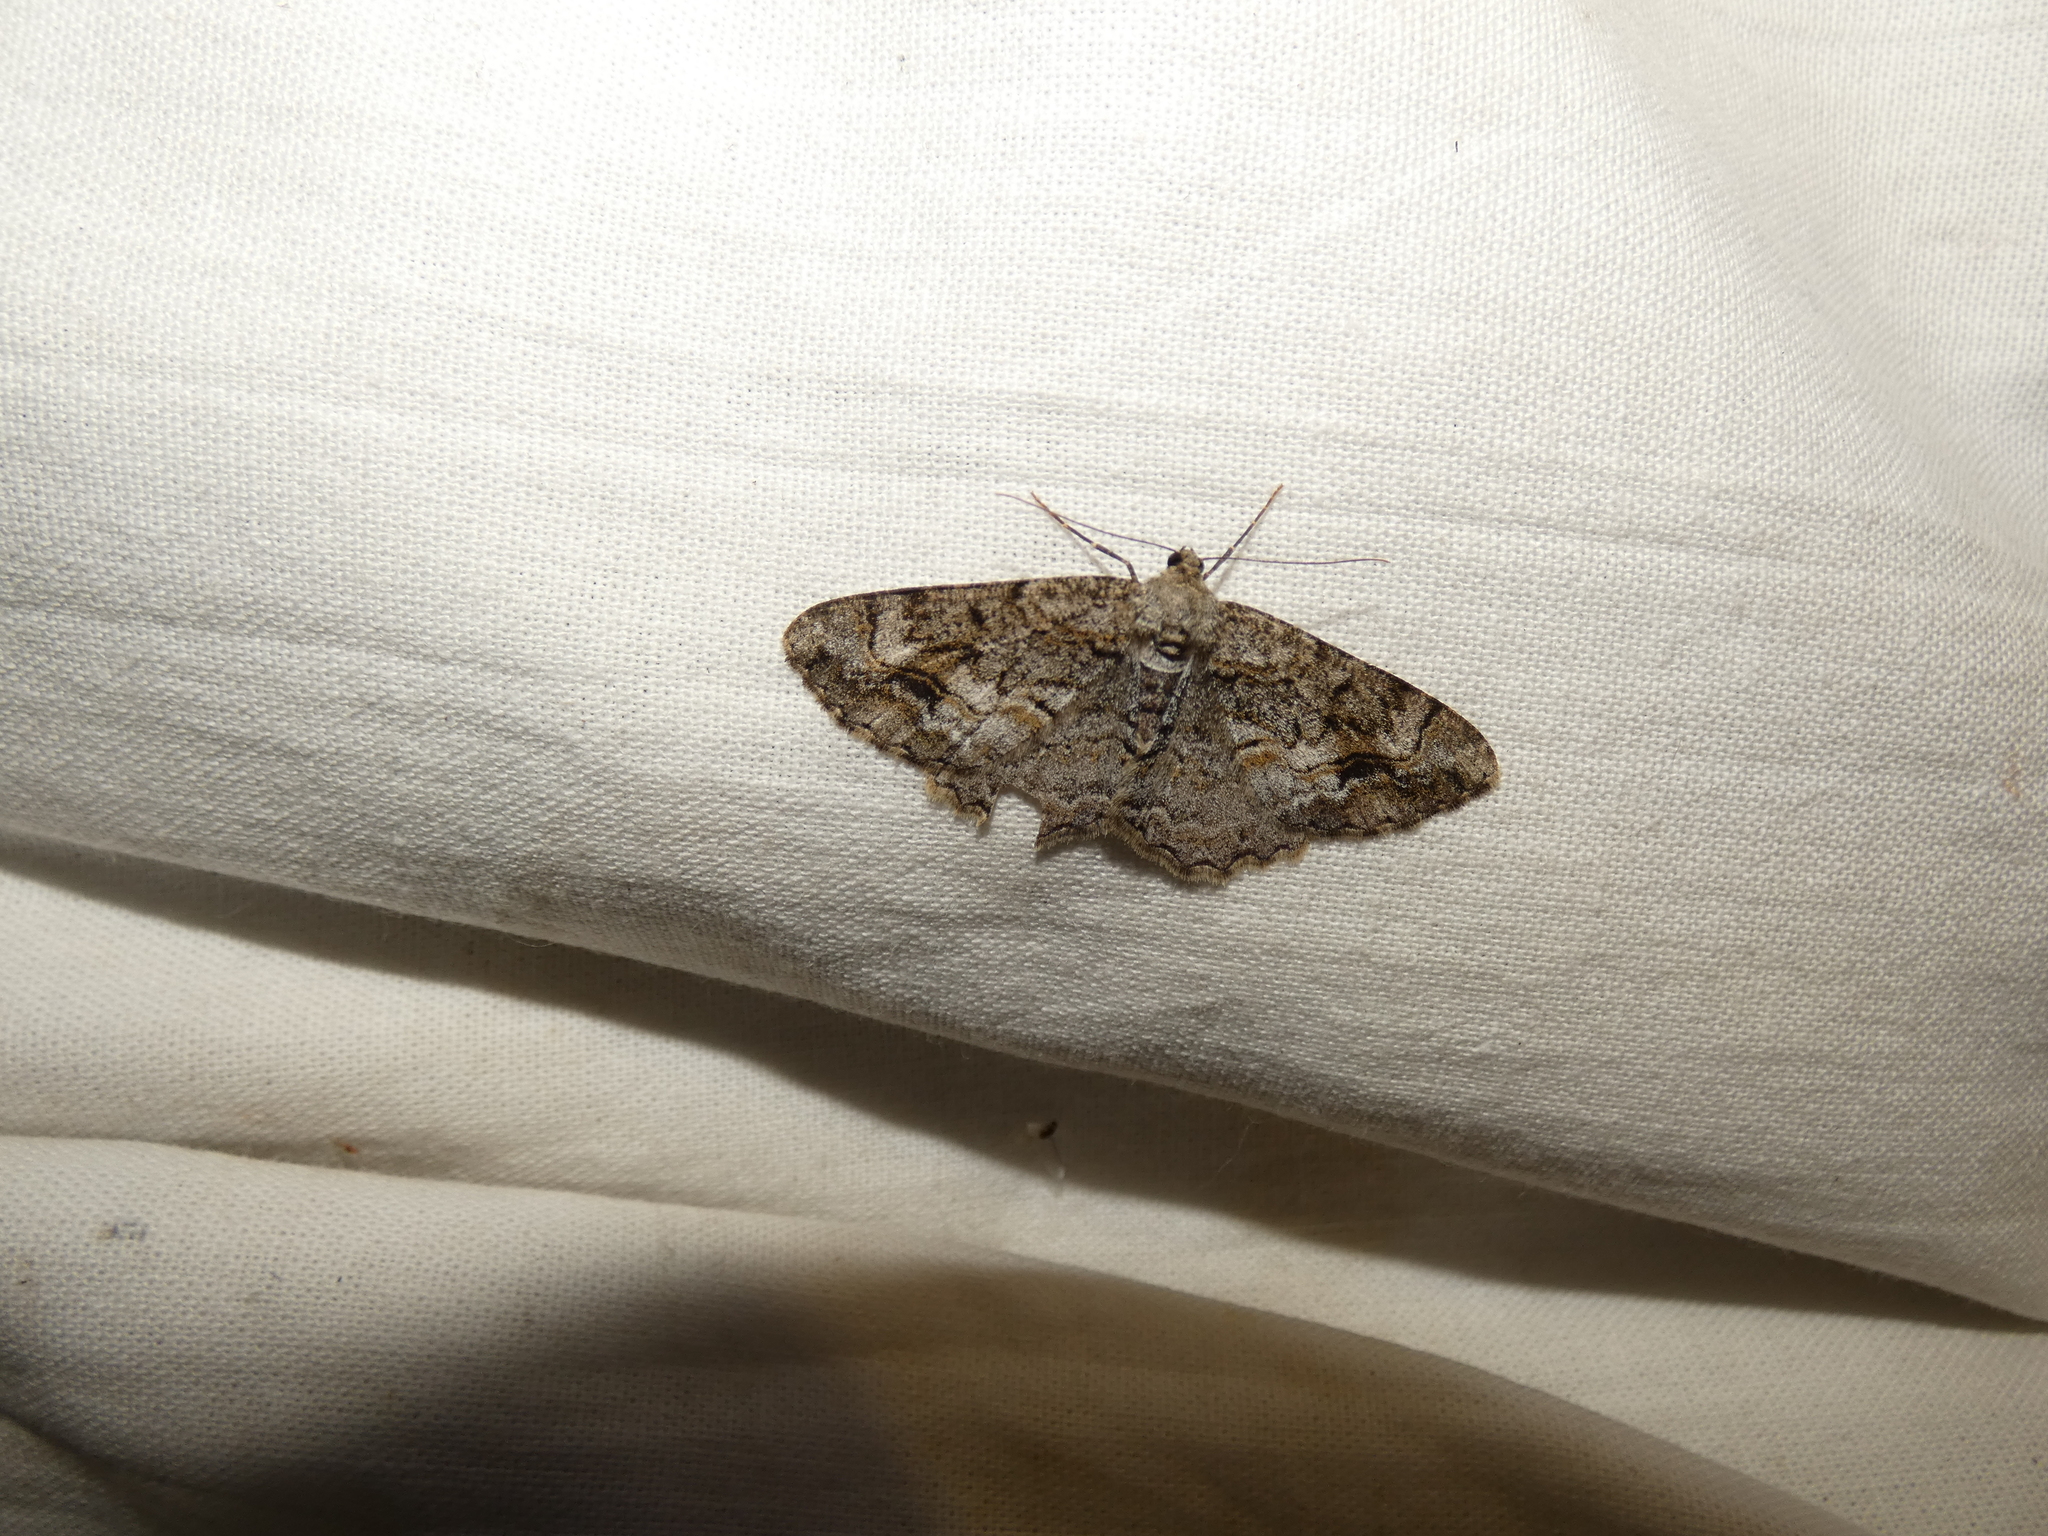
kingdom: Animalia
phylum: Arthropoda
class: Insecta
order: Lepidoptera
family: Geometridae
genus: Alcis
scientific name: Alcis deversata
